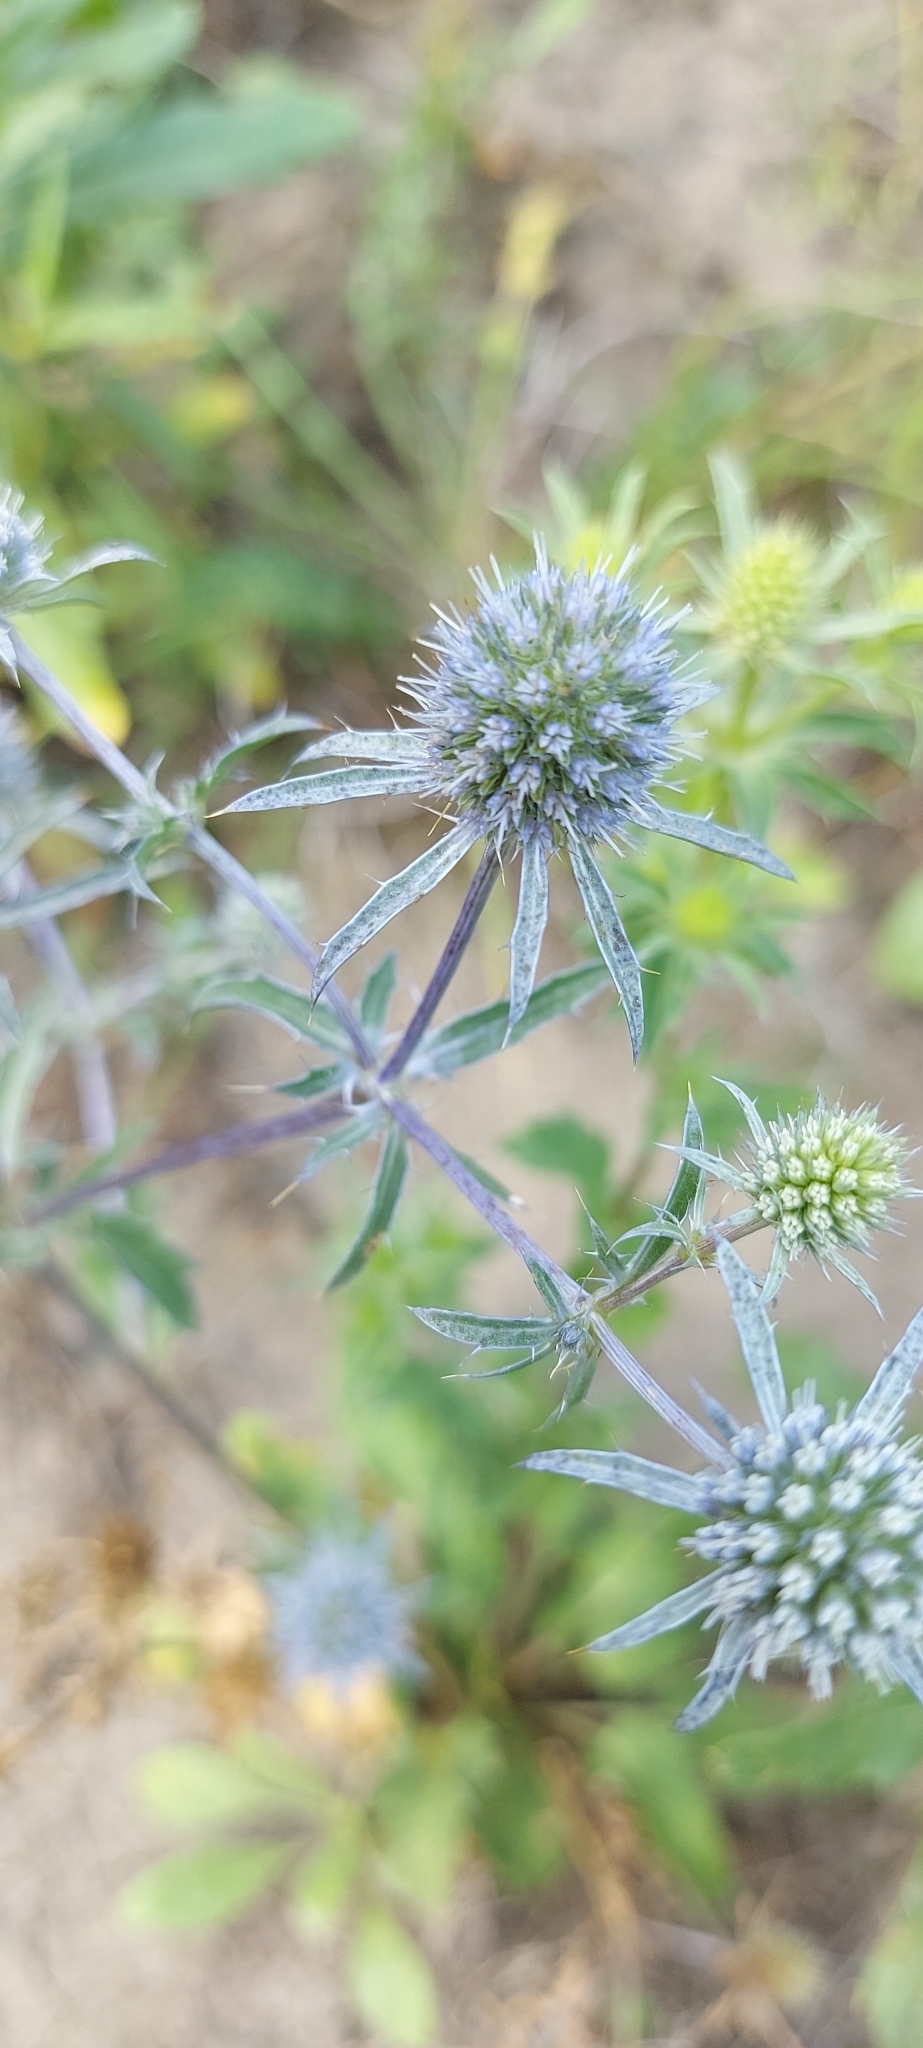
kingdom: Plantae
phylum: Tracheophyta
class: Magnoliopsida
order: Apiales
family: Apiaceae
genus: Eryngium
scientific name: Eryngium planum
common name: Blue eryngo
